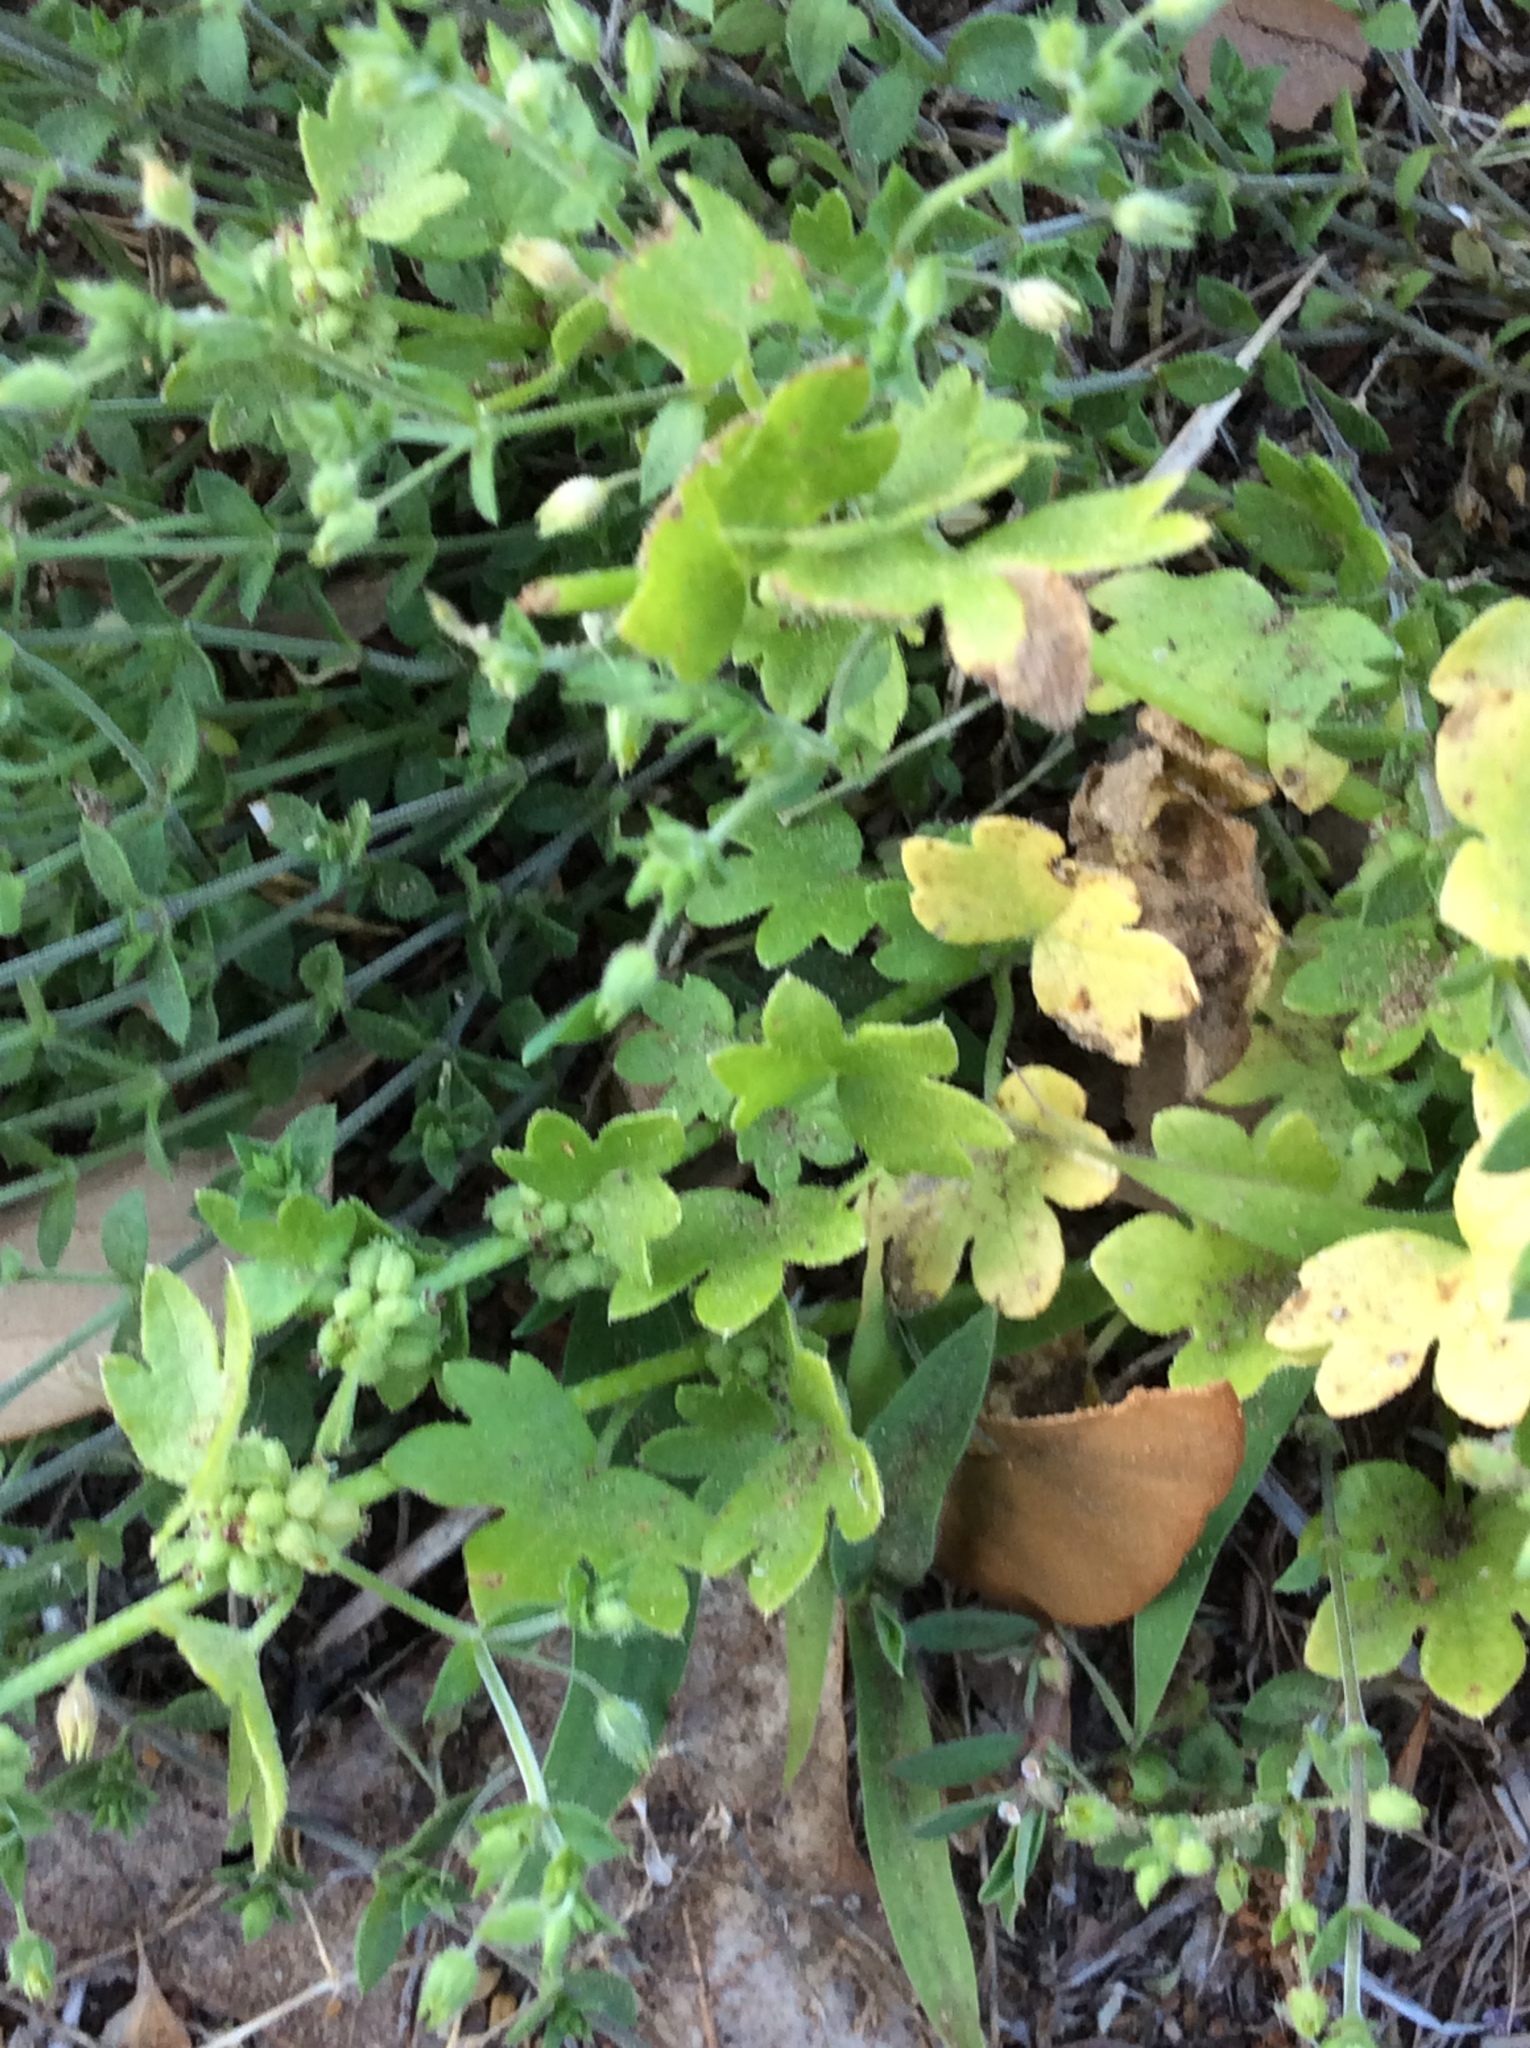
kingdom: Plantae
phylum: Tracheophyta
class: Magnoliopsida
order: Apiales
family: Apiaceae
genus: Bowlesia
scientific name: Bowlesia incana
